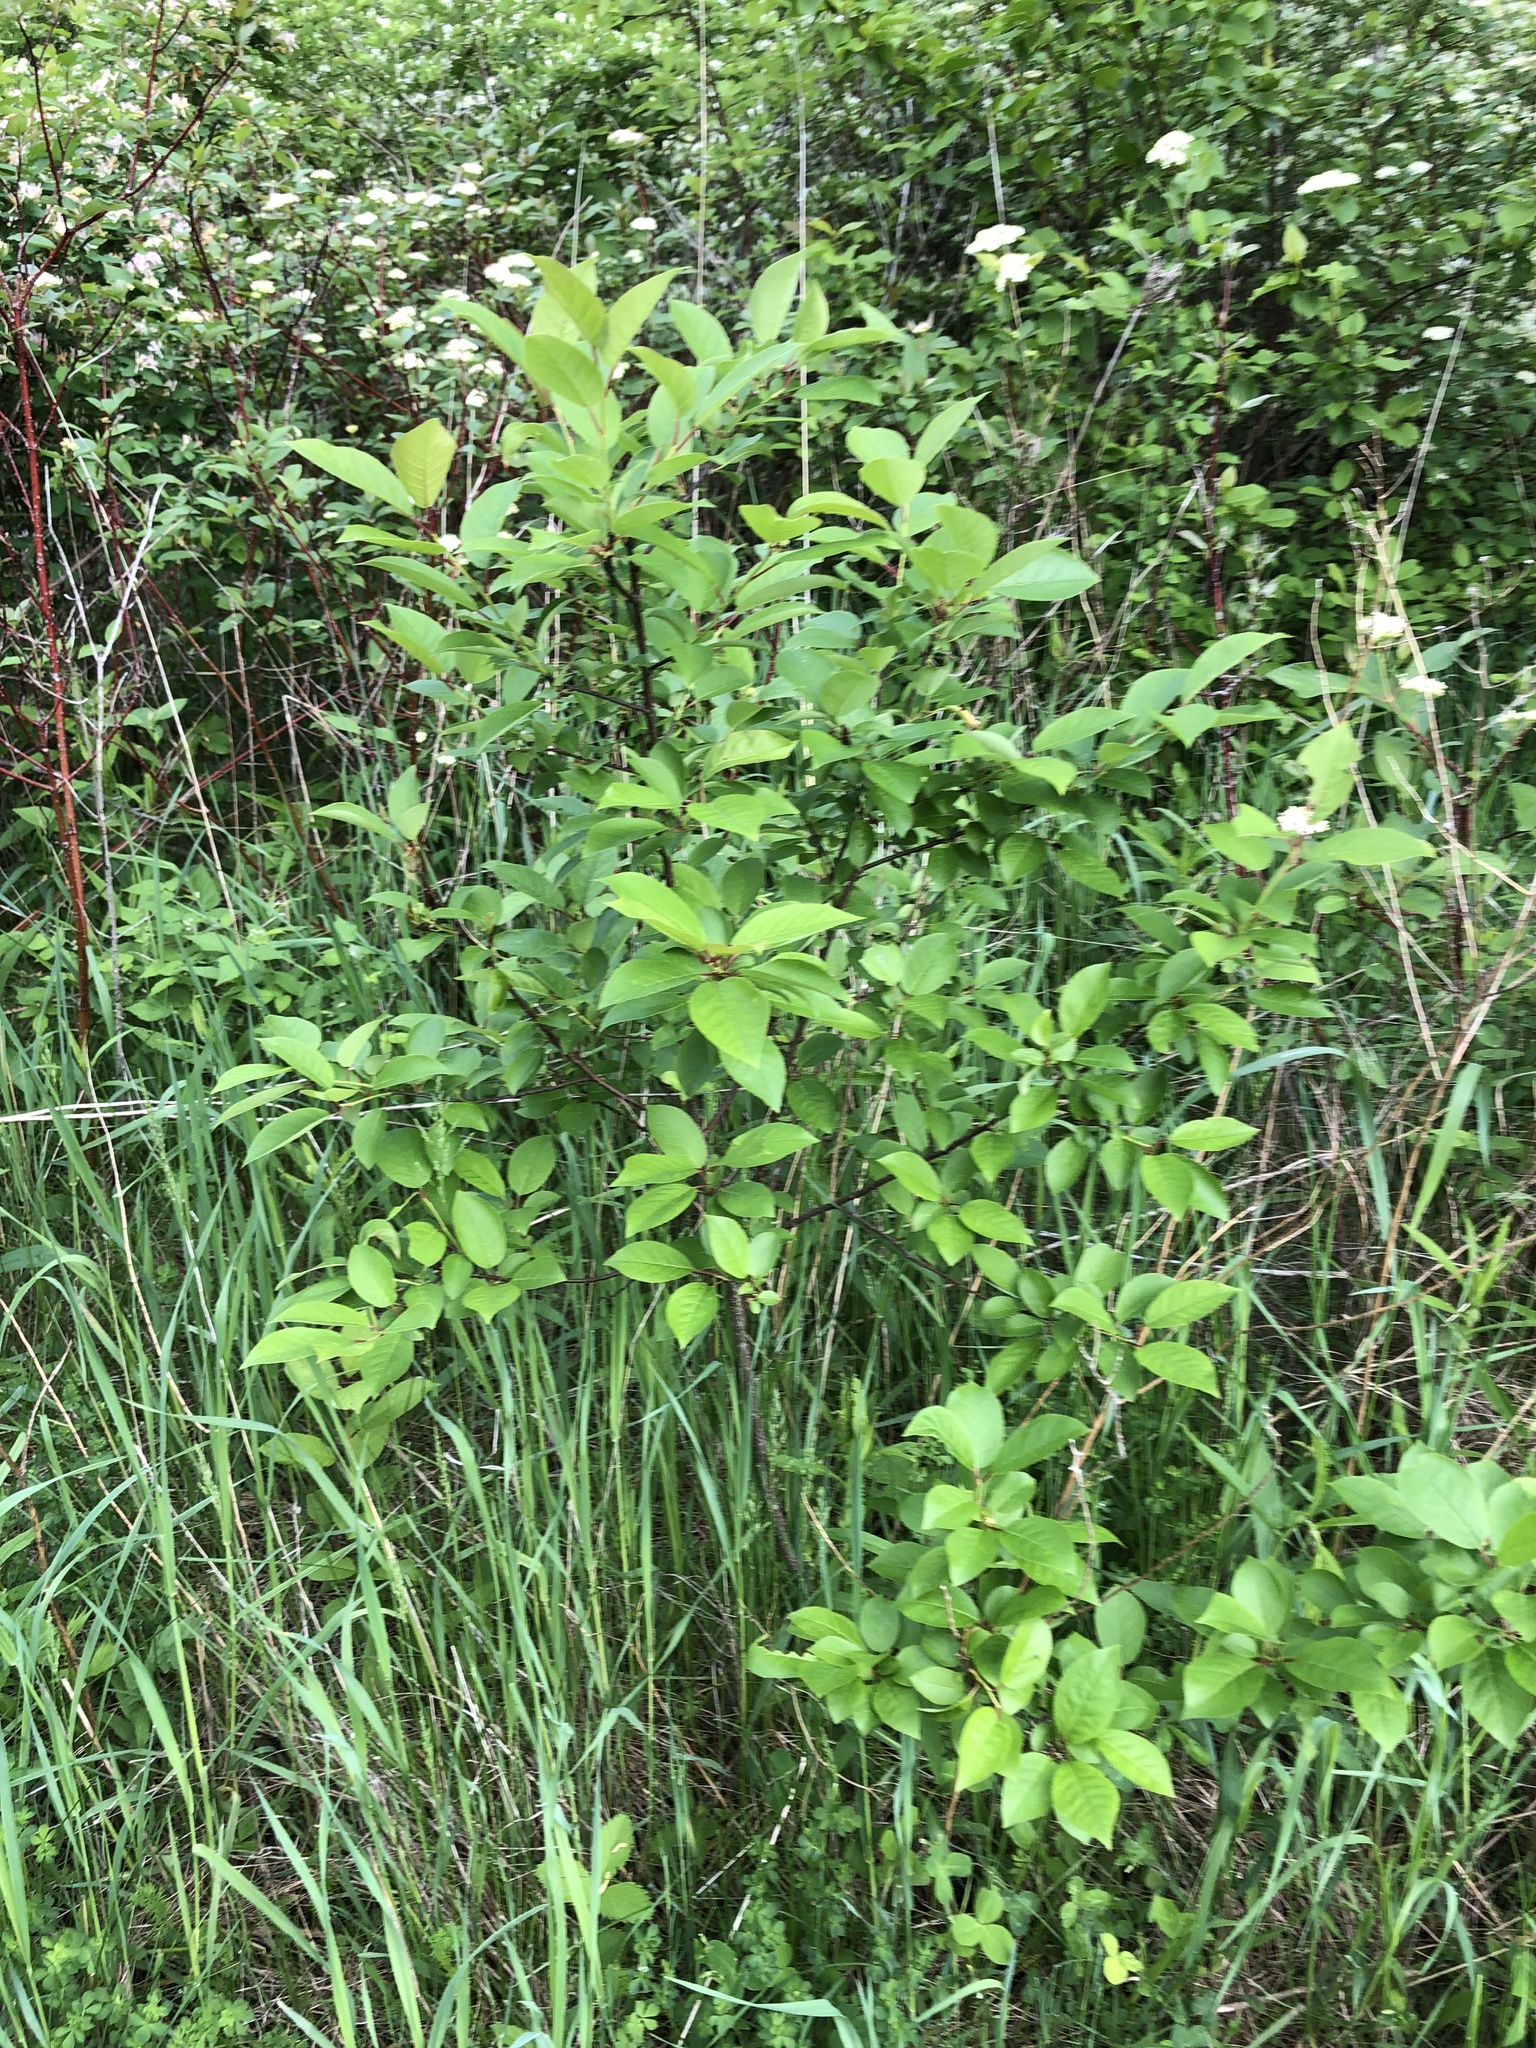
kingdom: Plantae
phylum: Tracheophyta
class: Magnoliopsida
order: Rosales
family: Rosaceae
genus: Prunus
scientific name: Prunus virginiana
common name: Chokecherry
